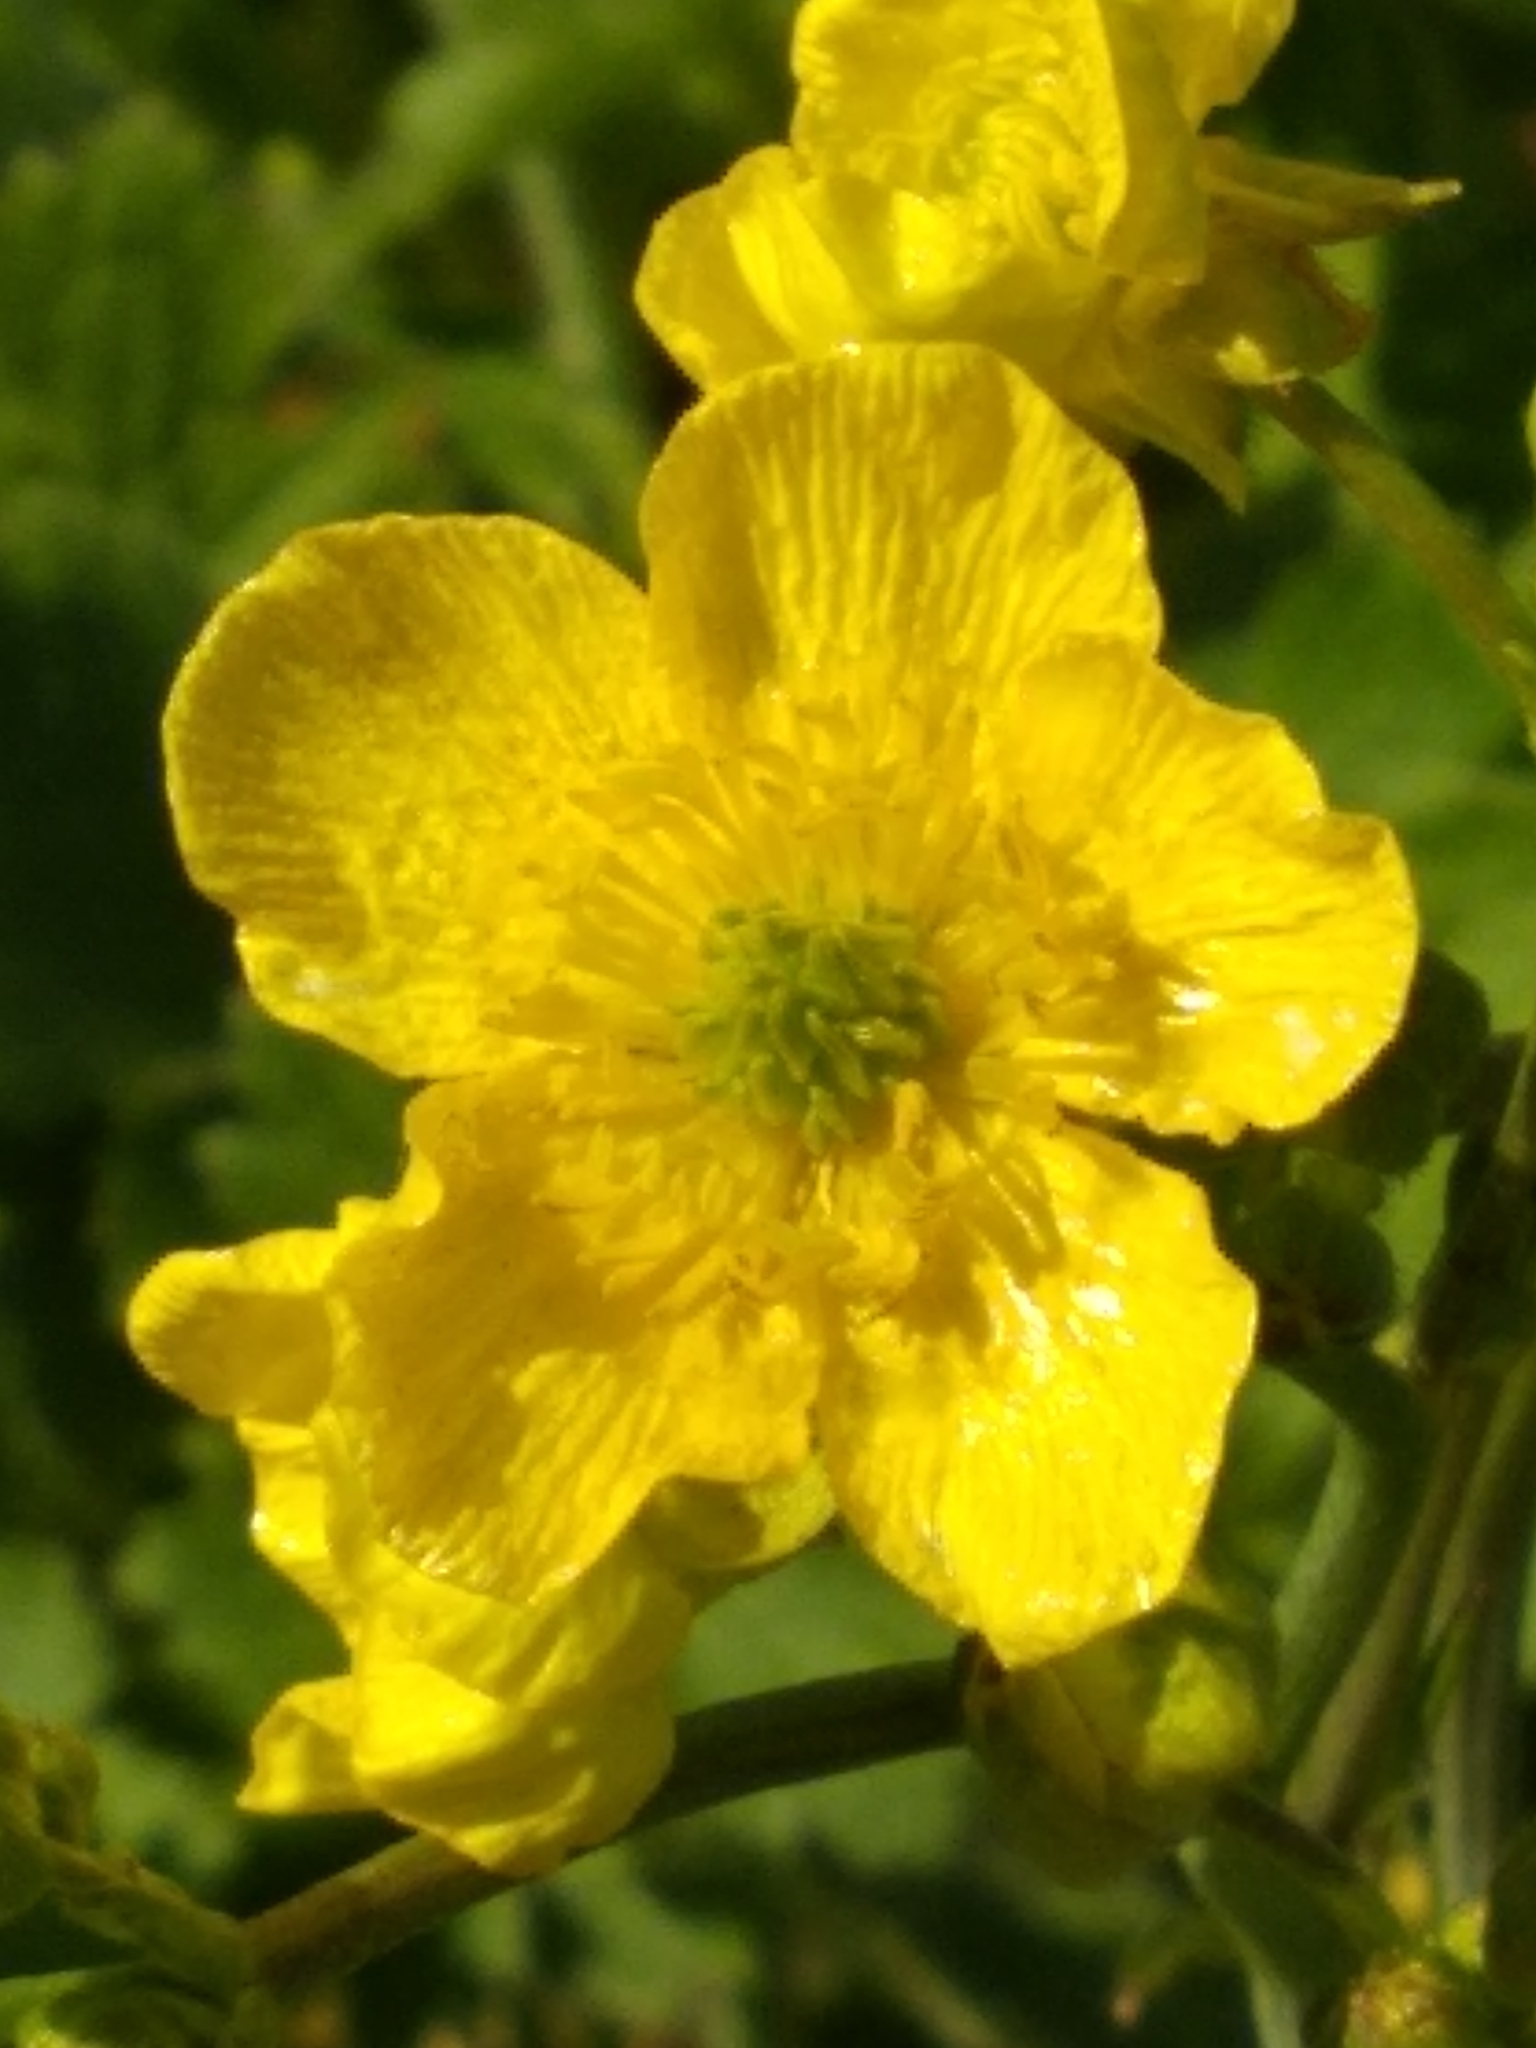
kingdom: Plantae
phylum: Tracheophyta
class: Magnoliopsida
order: Ranunculales
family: Ranunculaceae
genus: Ranunculus
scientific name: Ranunculus bulbosus
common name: Bulbous buttercup
